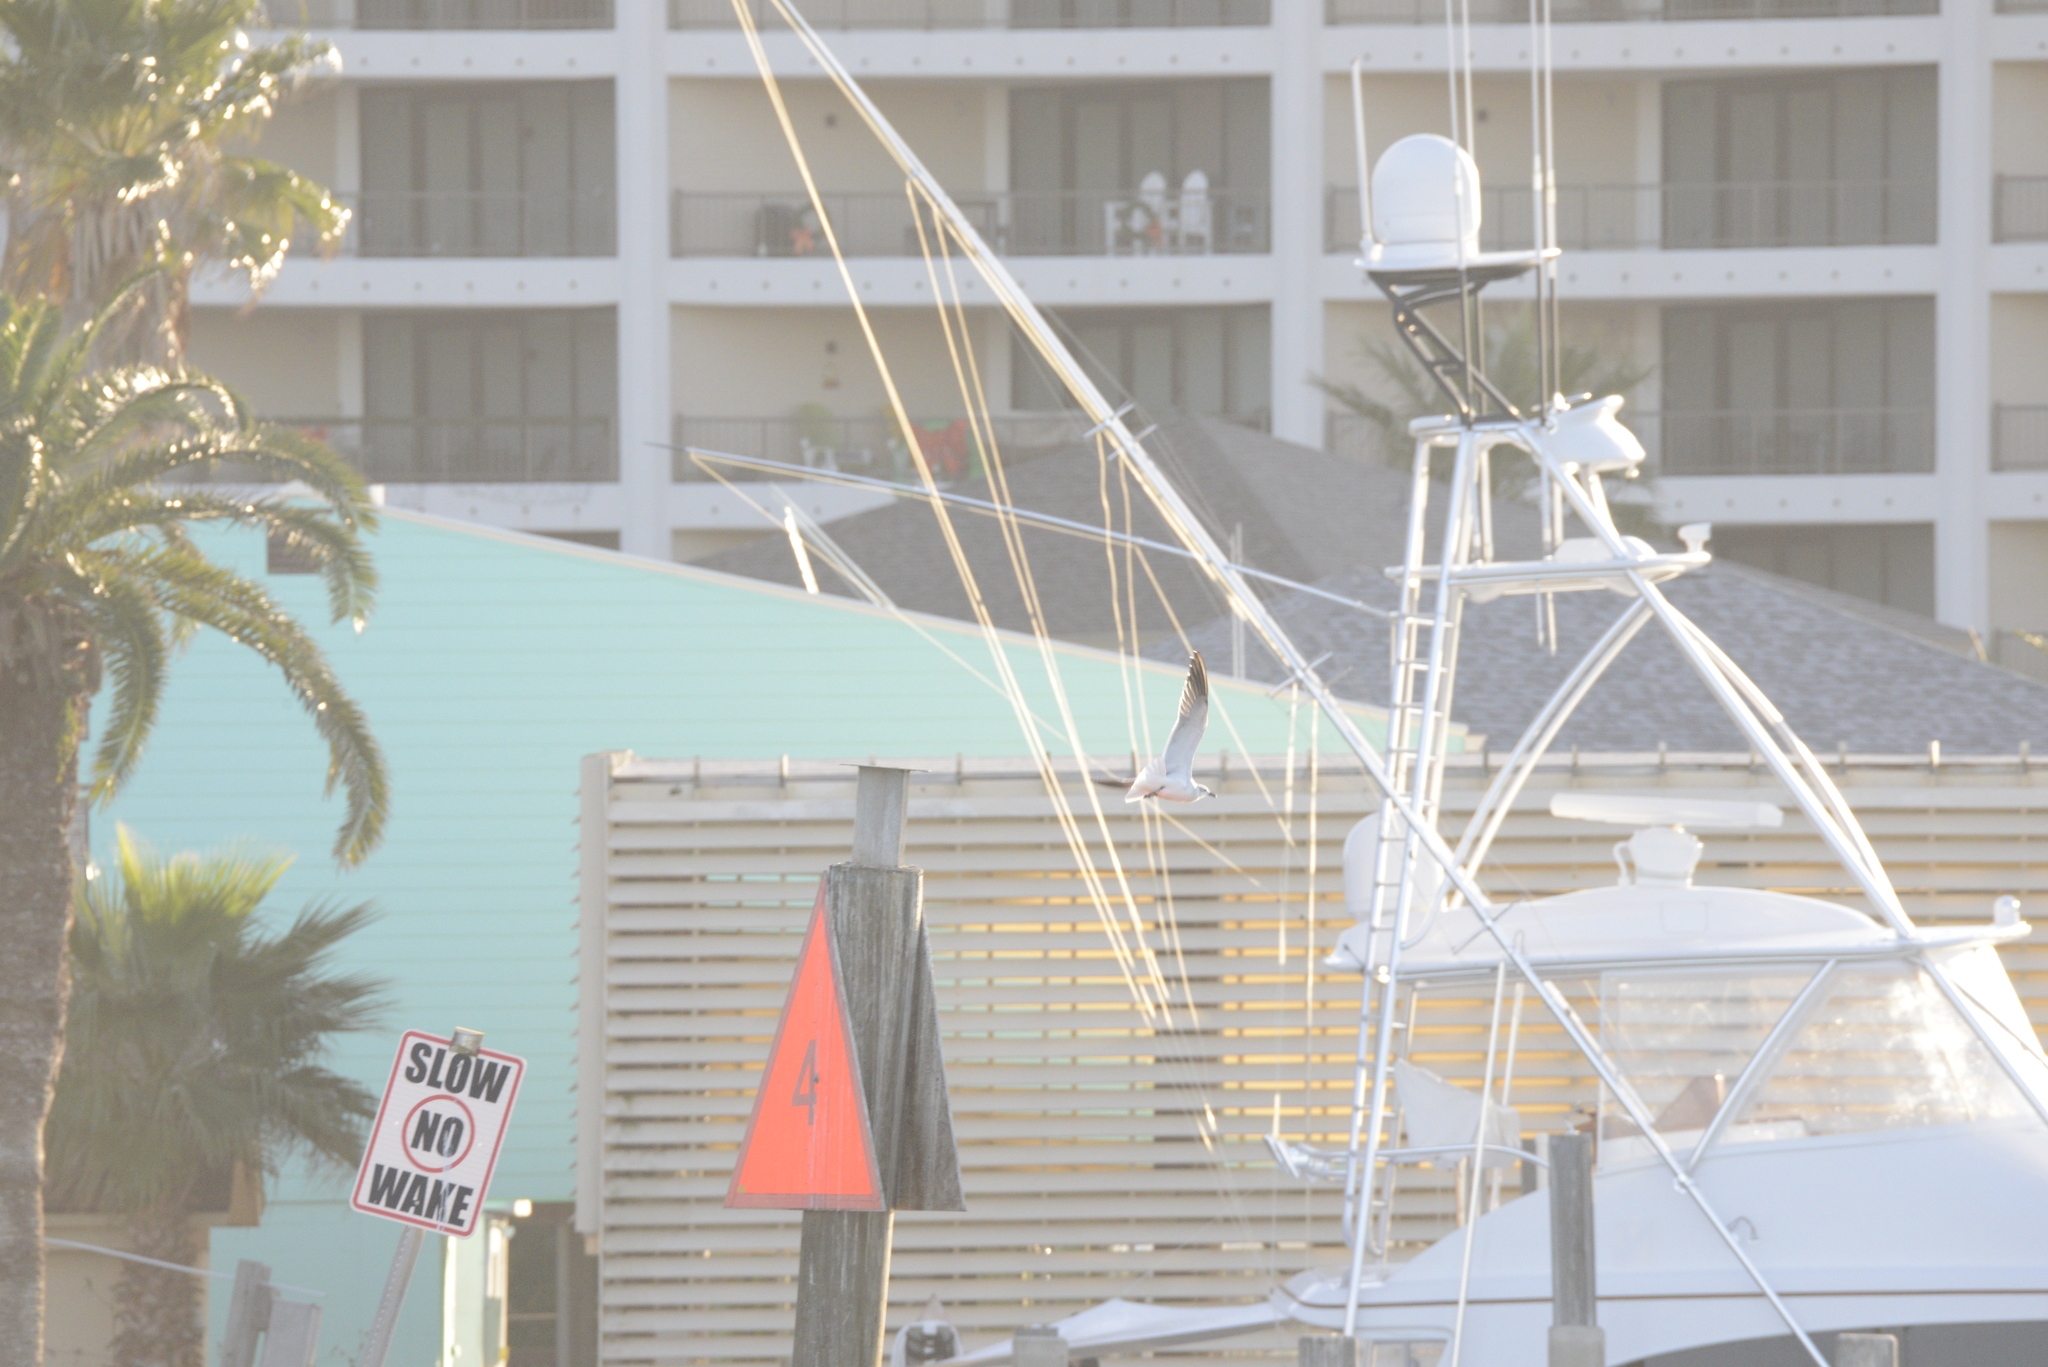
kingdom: Animalia
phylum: Chordata
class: Aves
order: Charadriiformes
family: Laridae
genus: Leucophaeus
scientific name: Leucophaeus atricilla
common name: Laughing gull
